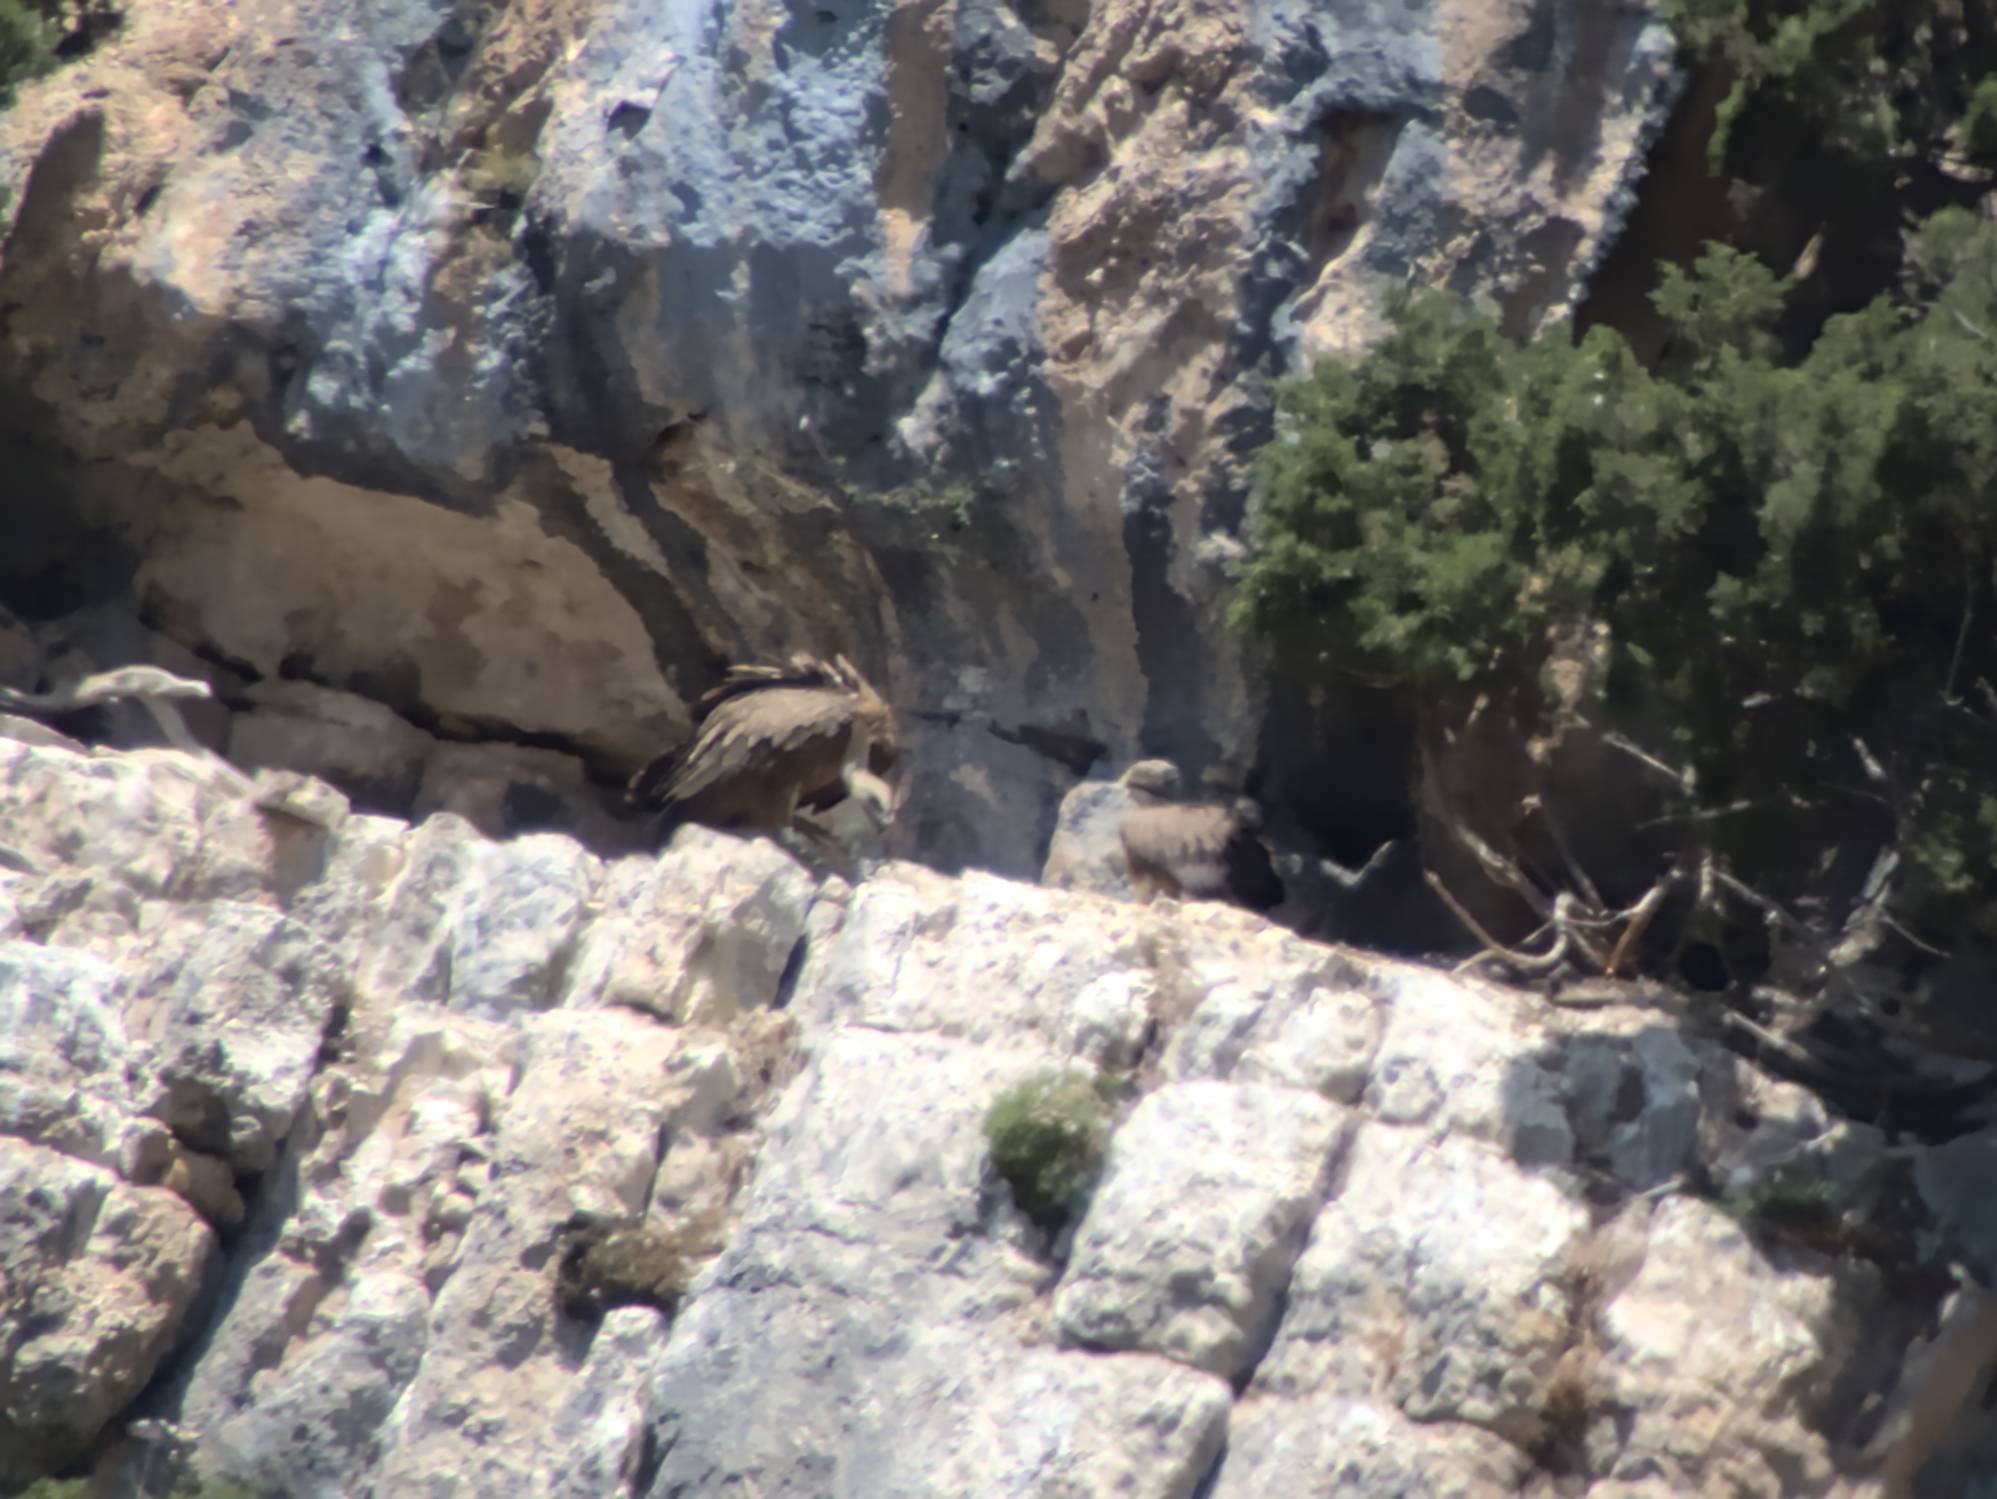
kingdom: Animalia
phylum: Chordata
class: Aves
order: Accipitriformes
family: Accipitridae
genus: Gyps
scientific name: Gyps fulvus
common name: Griffon vulture
